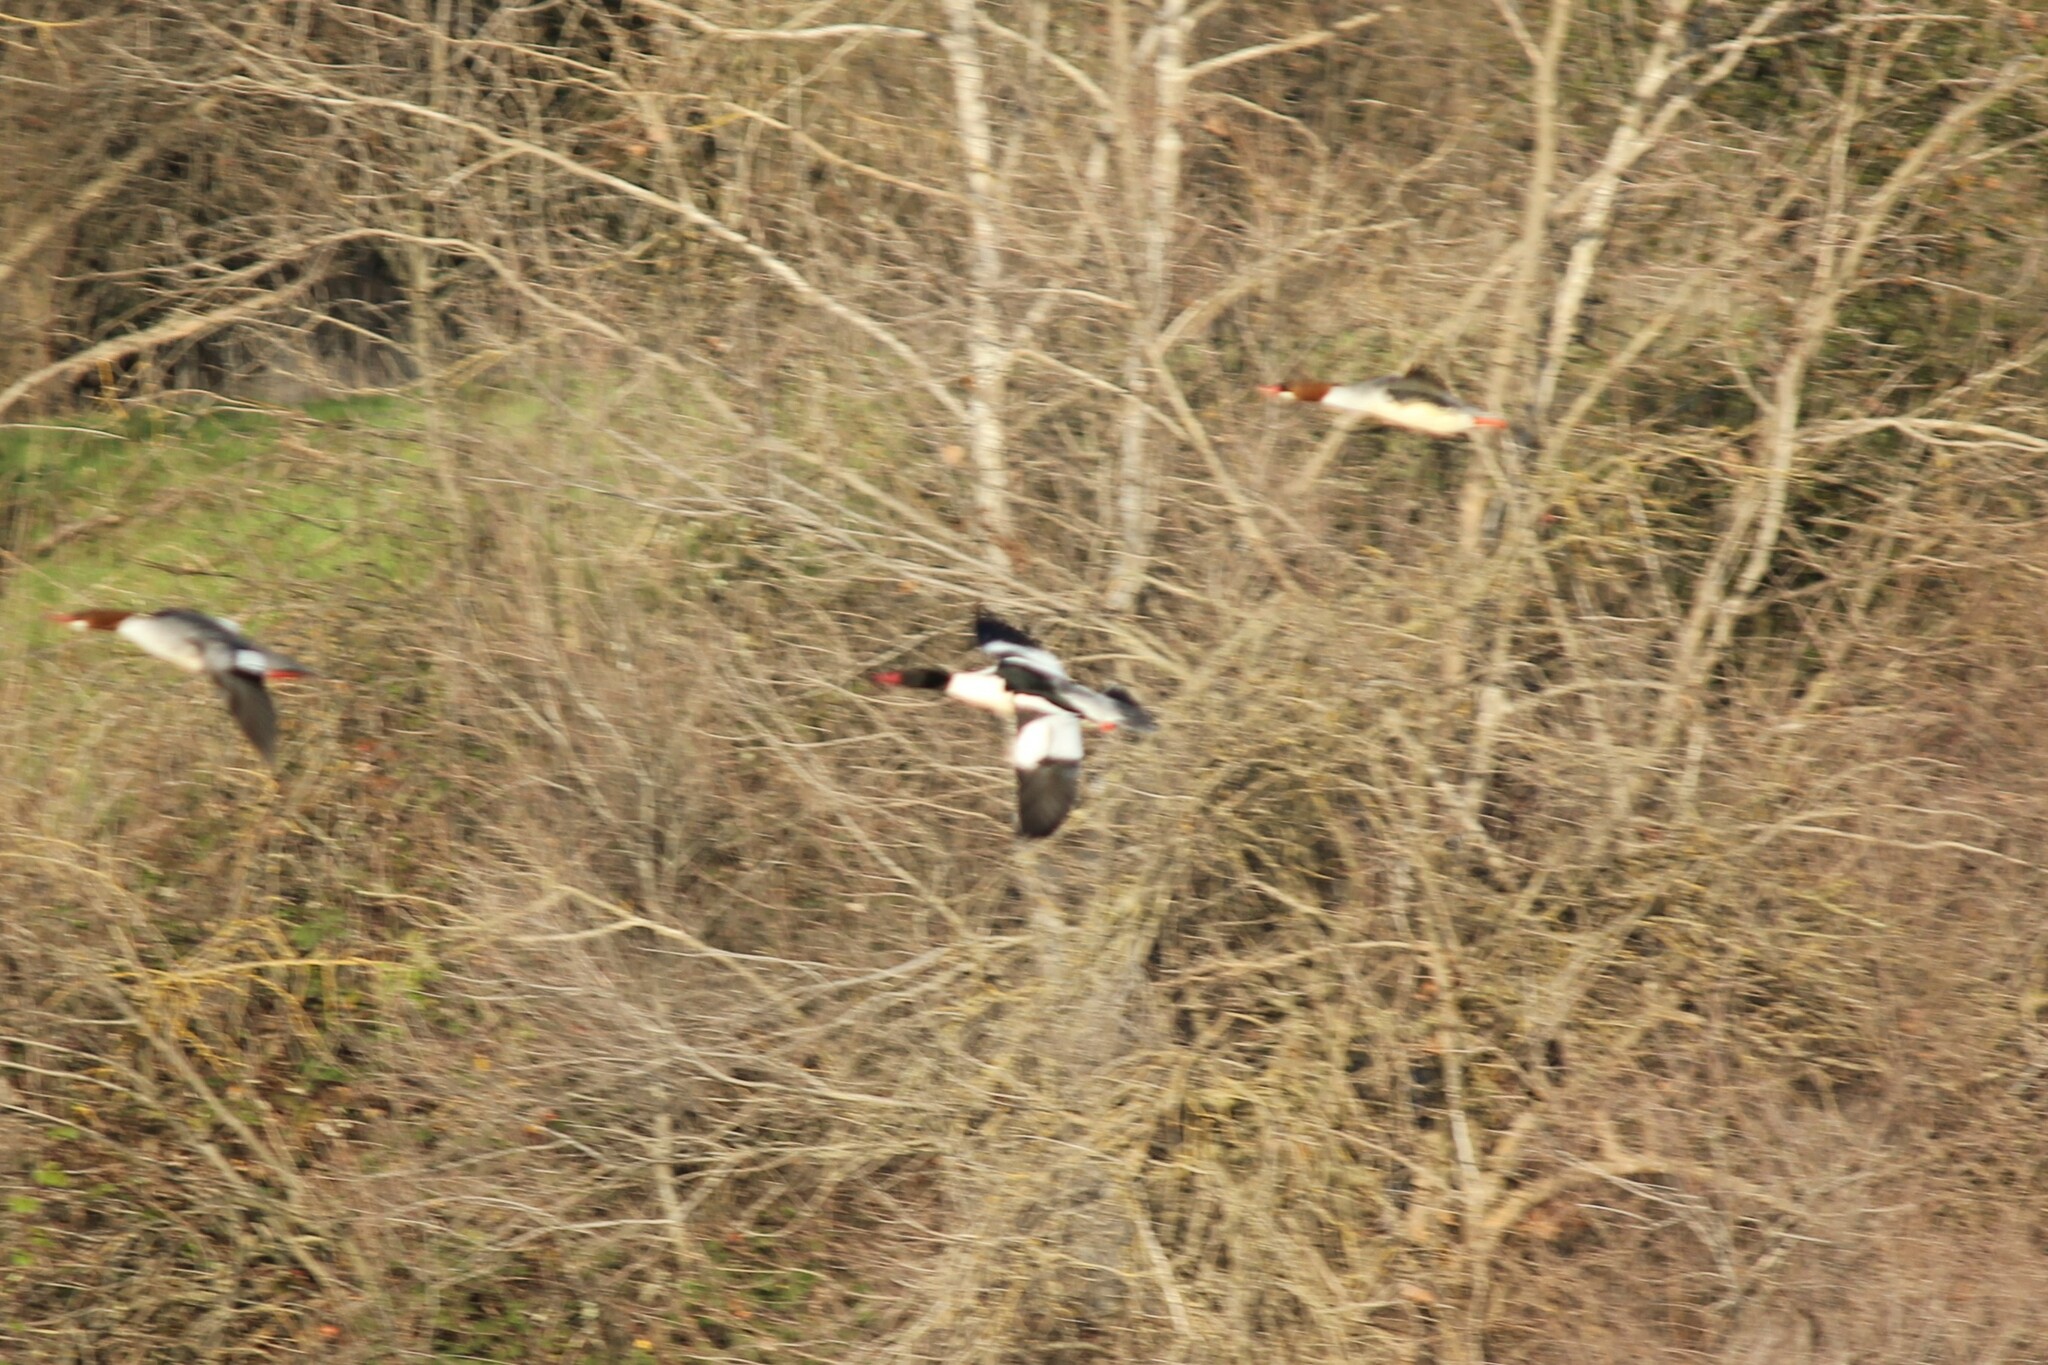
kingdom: Animalia
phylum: Chordata
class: Aves
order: Anseriformes
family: Anatidae
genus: Mergus
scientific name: Mergus merganser
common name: Common merganser
